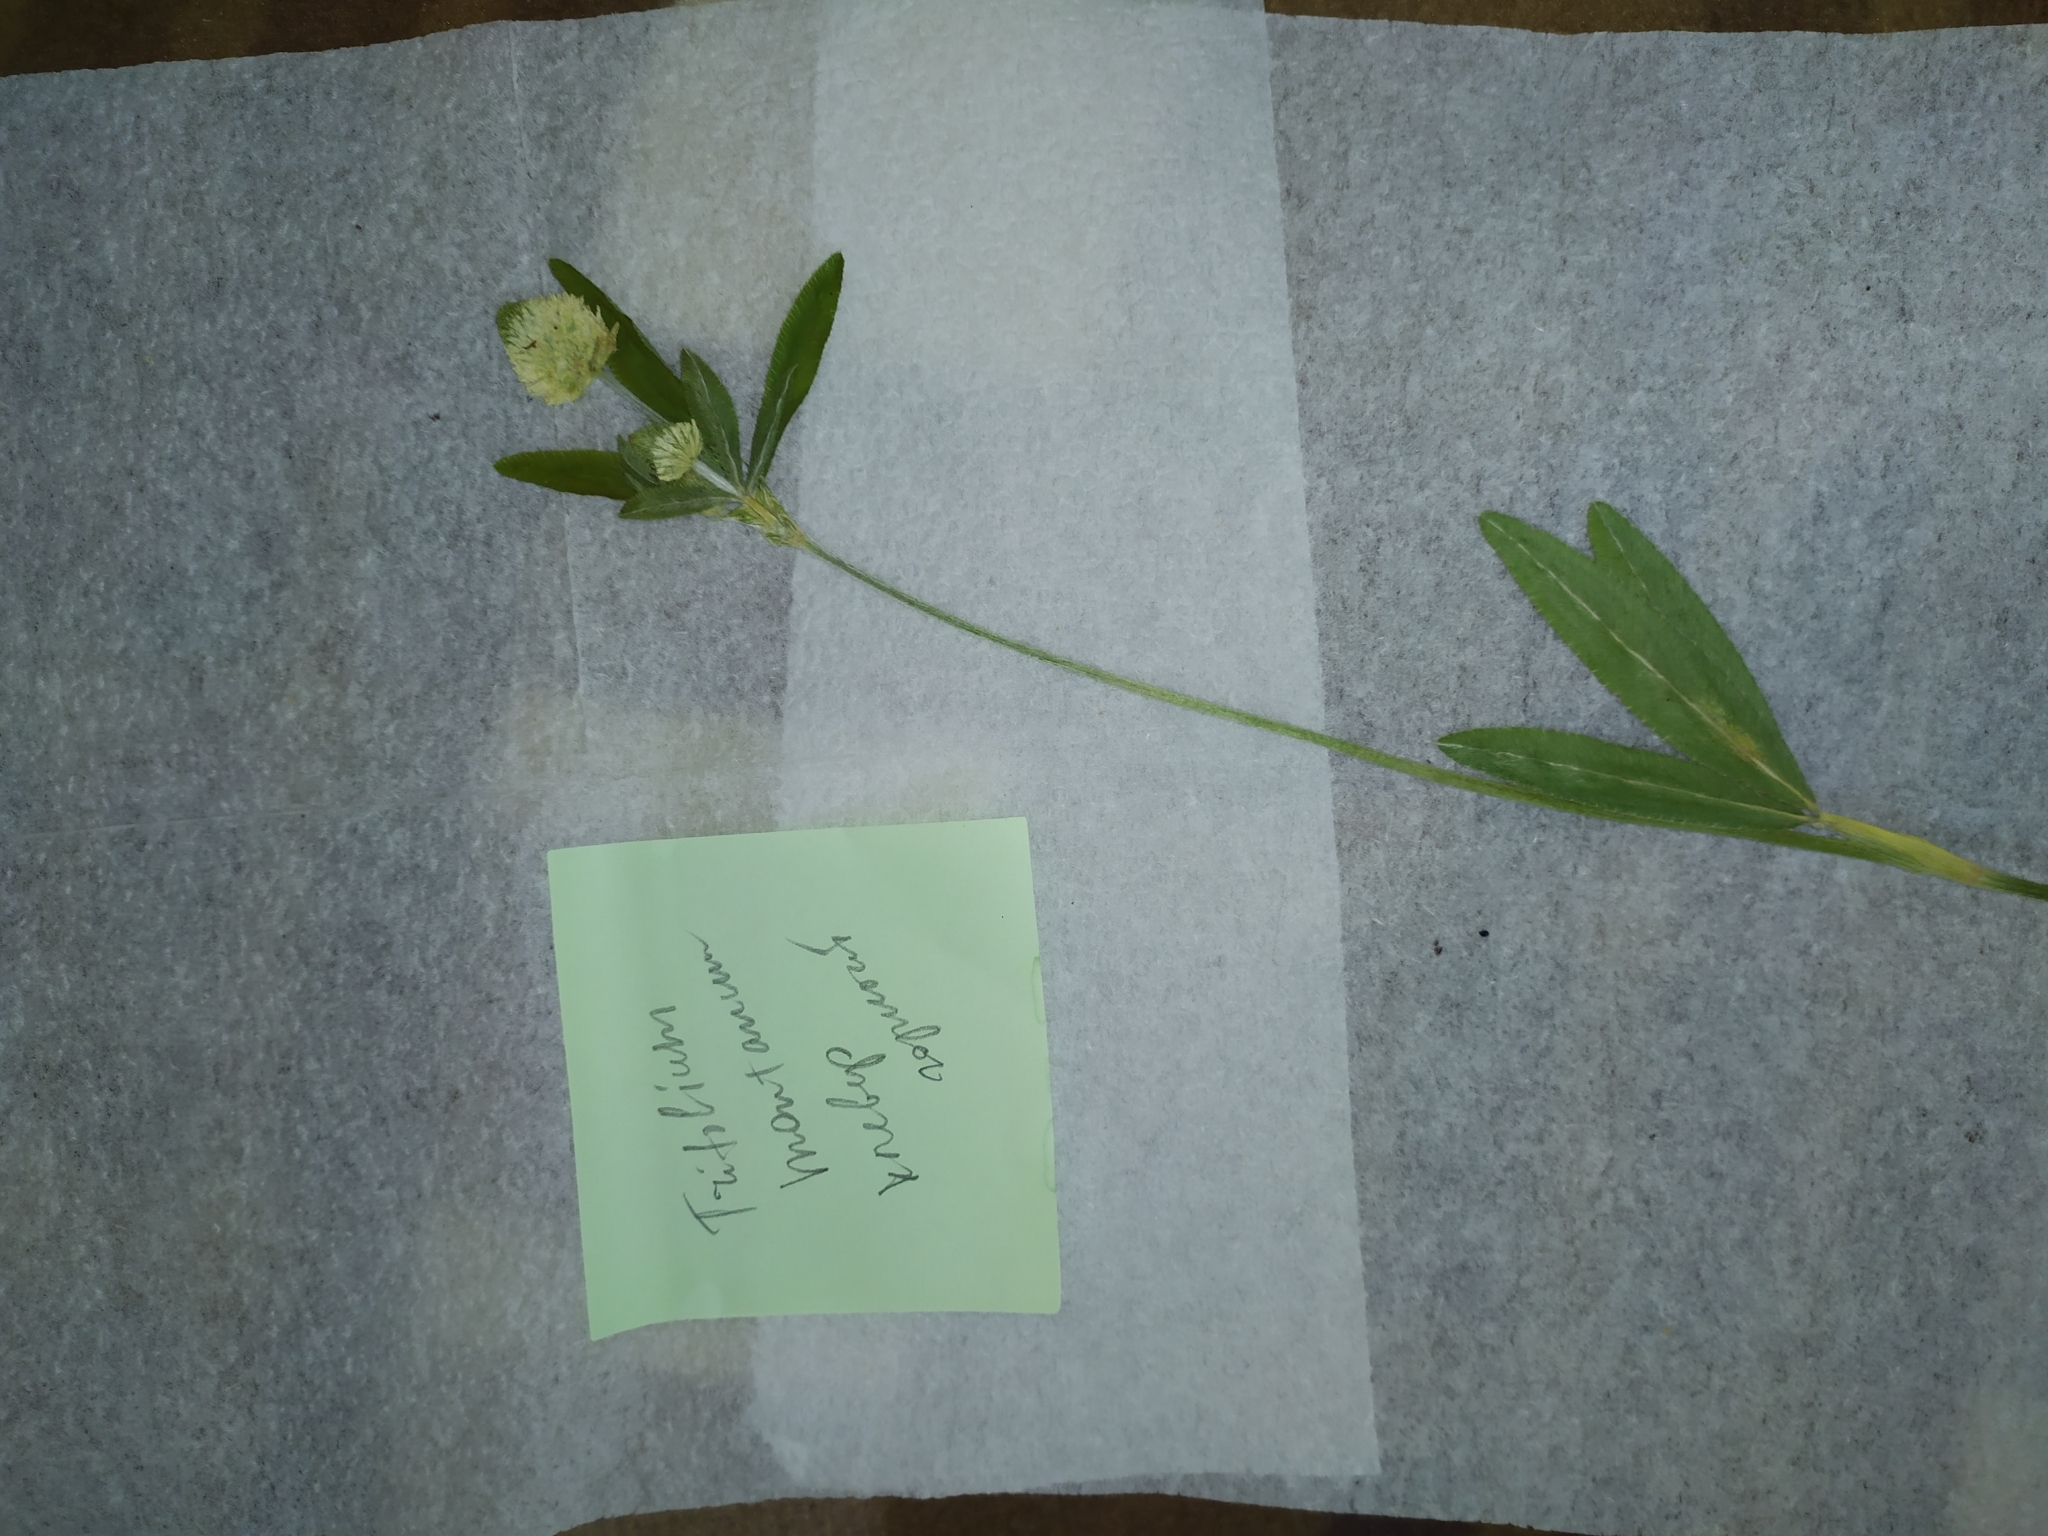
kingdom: Plantae
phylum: Tracheophyta
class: Magnoliopsida
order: Fabales
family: Fabaceae
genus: Trifolium
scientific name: Trifolium montanum
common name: Mountain clover
